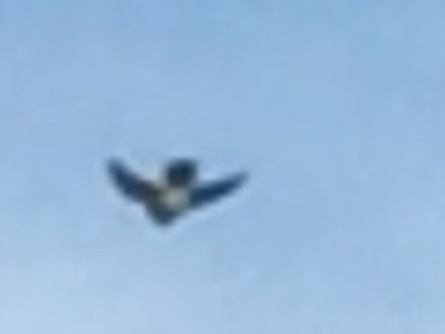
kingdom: Animalia
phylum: Chordata
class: Aves
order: Passeriformes
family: Hirundinidae
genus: Tachycineta
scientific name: Tachycineta bicolor
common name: Tree swallow
